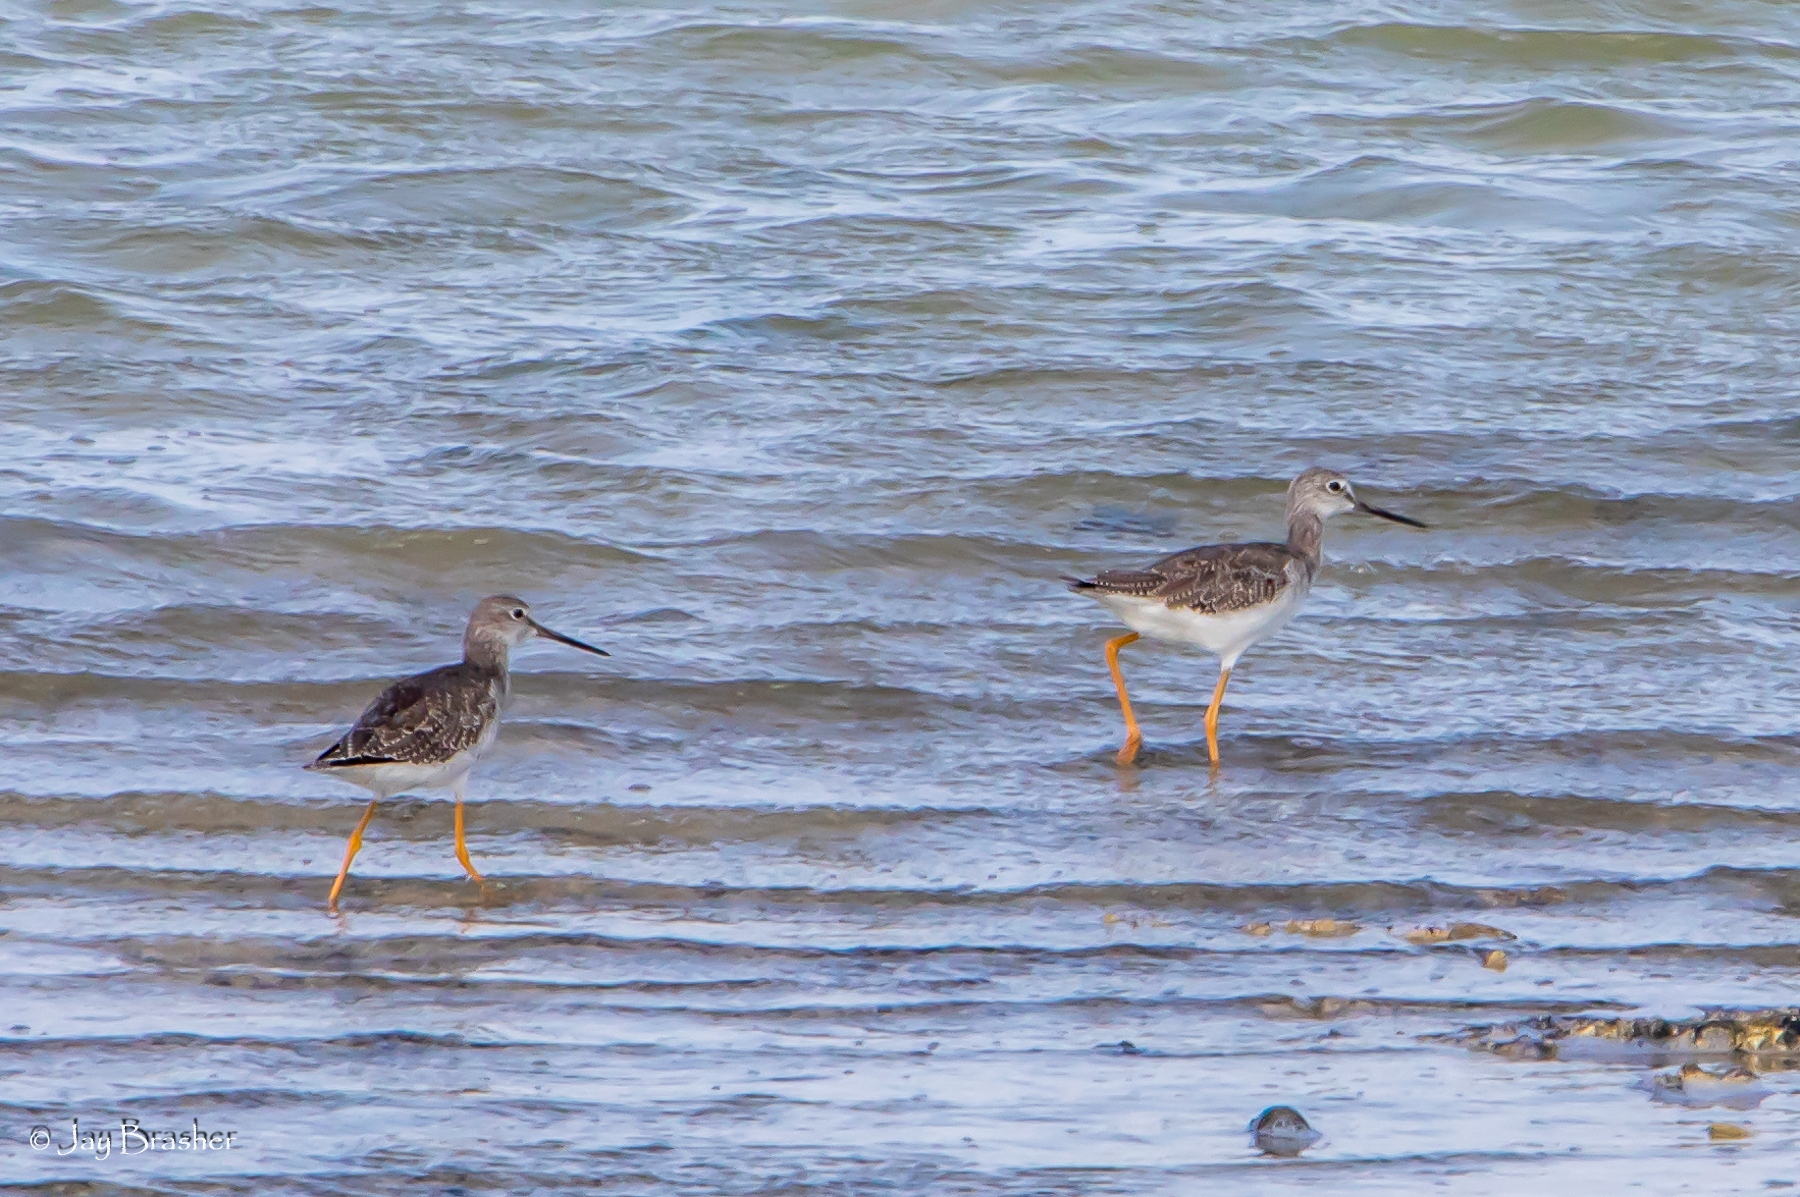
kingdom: Animalia
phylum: Chordata
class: Aves
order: Charadriiformes
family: Scolopacidae
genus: Tringa
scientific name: Tringa melanoleuca
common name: Greater yellowlegs
